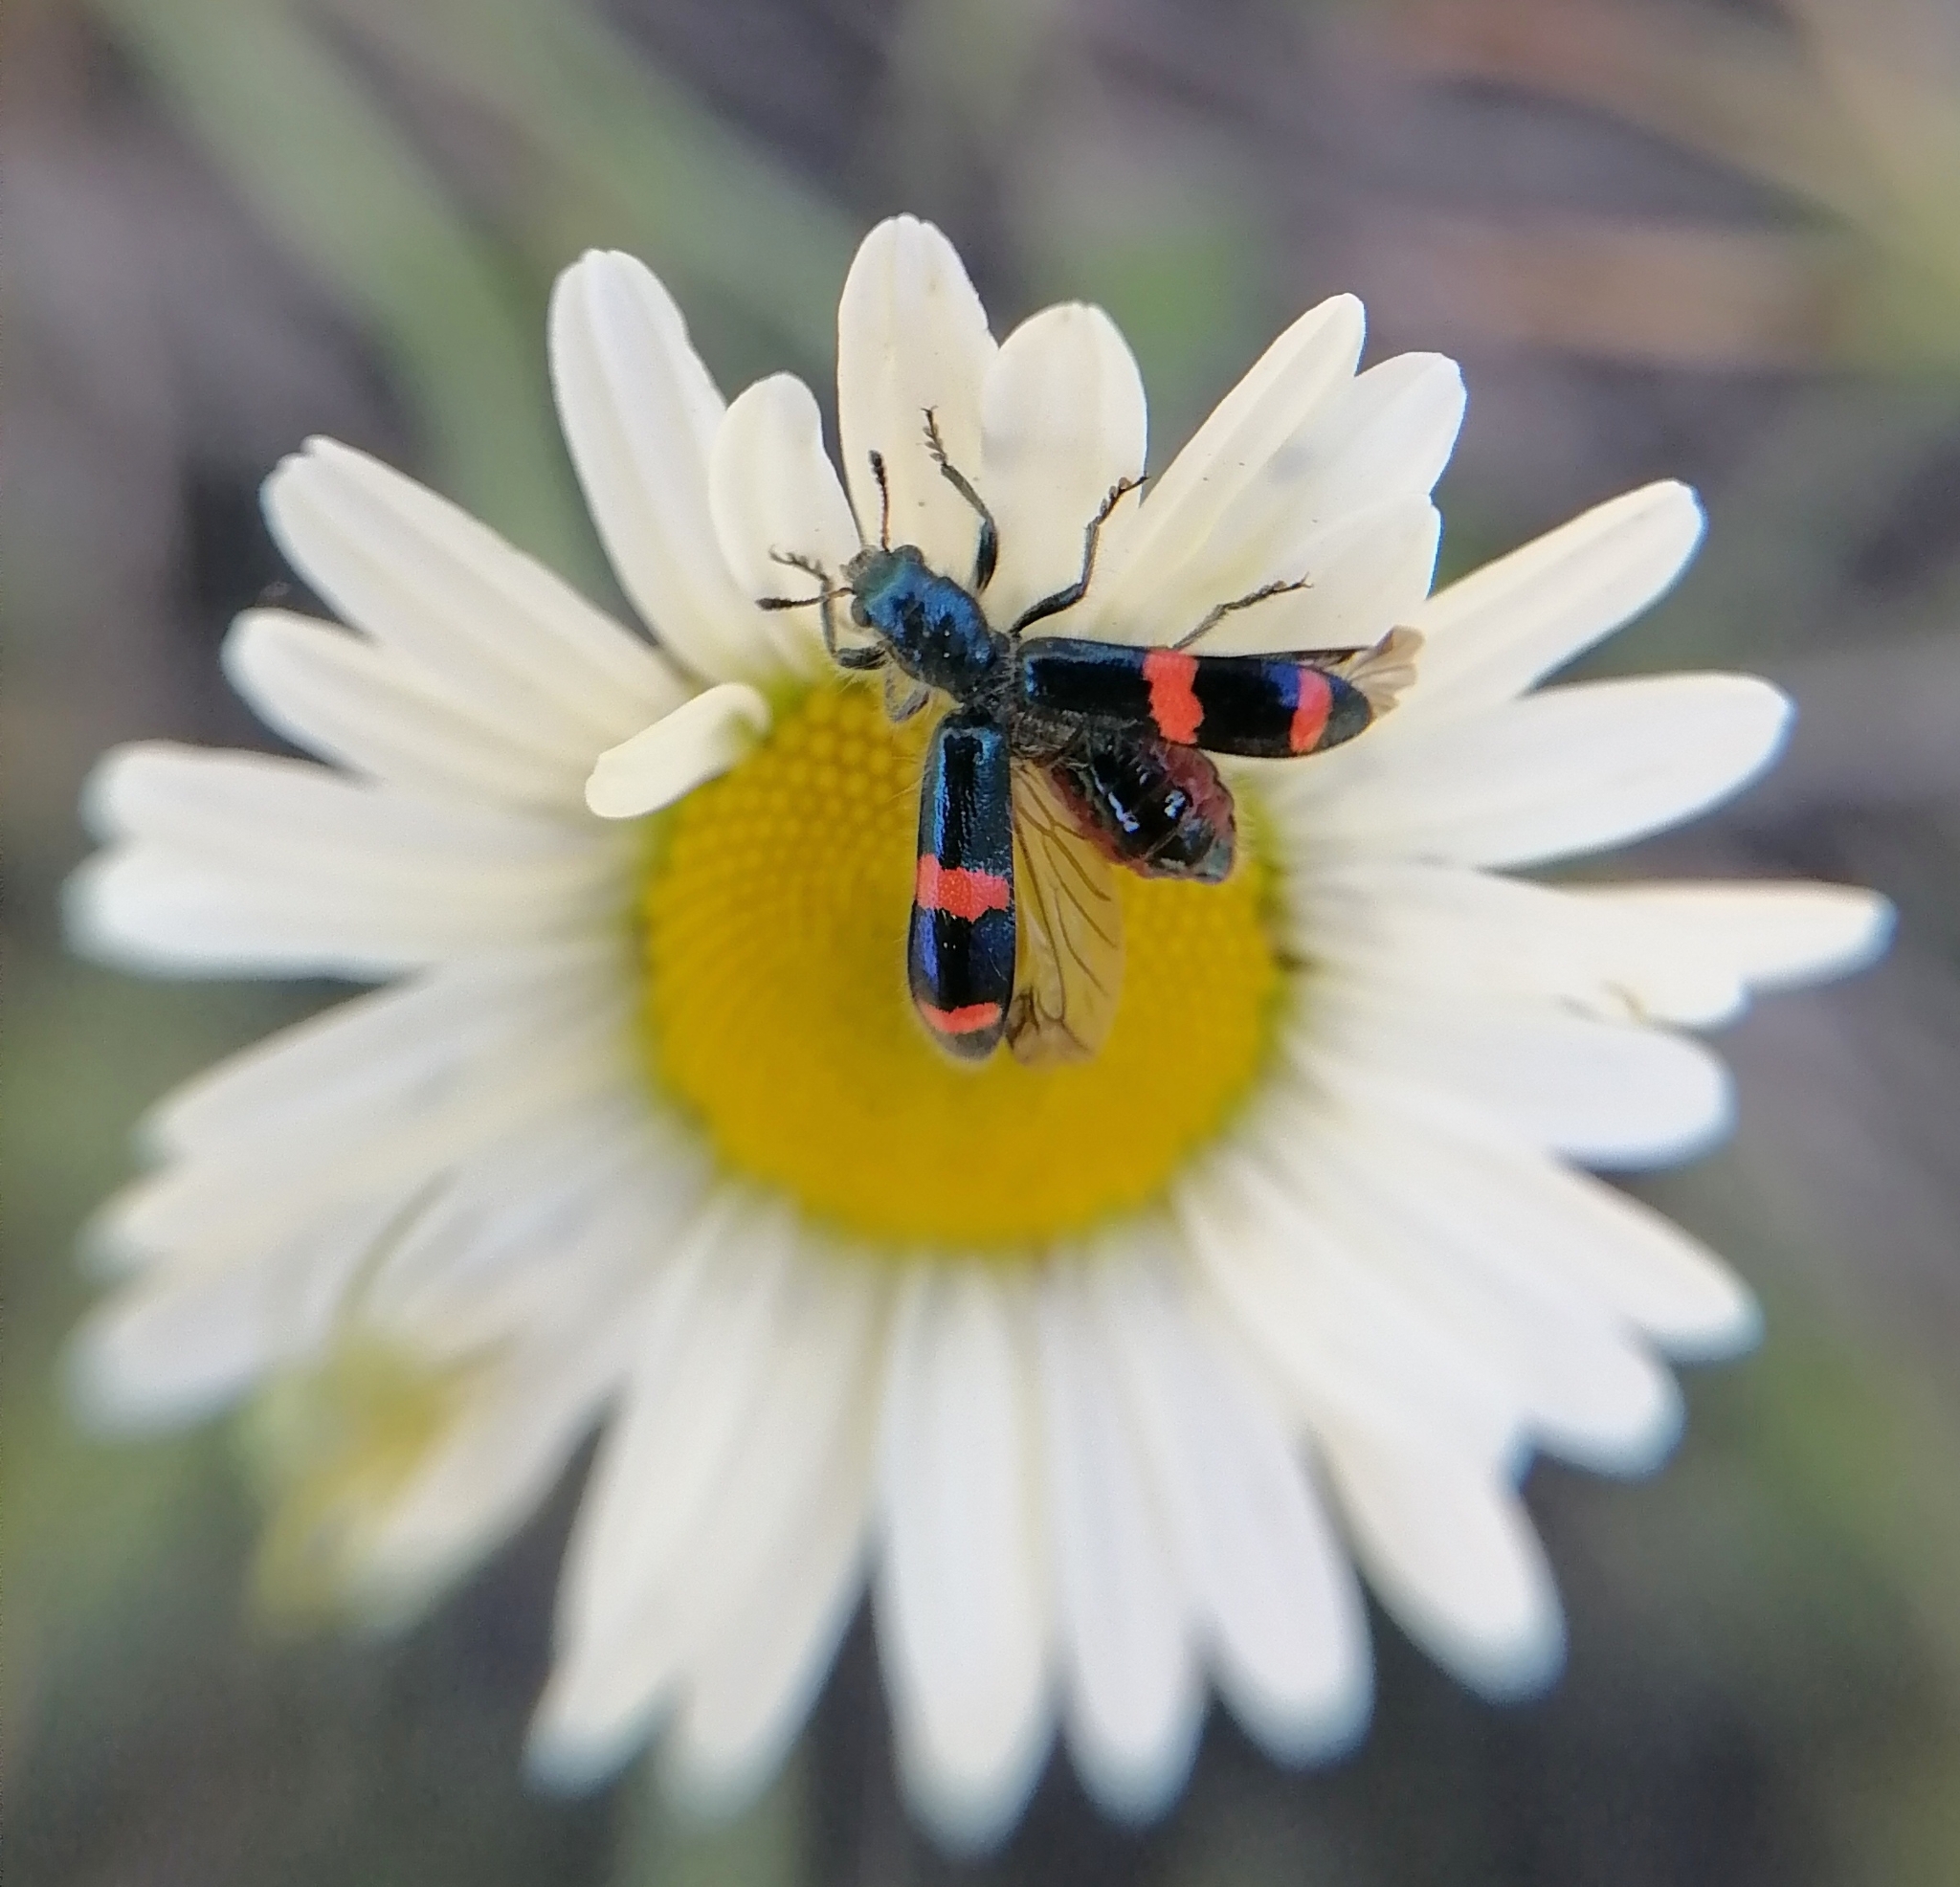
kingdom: Animalia
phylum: Arthropoda
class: Insecta
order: Coleoptera
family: Cleridae
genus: Trichodes
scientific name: Trichodes
